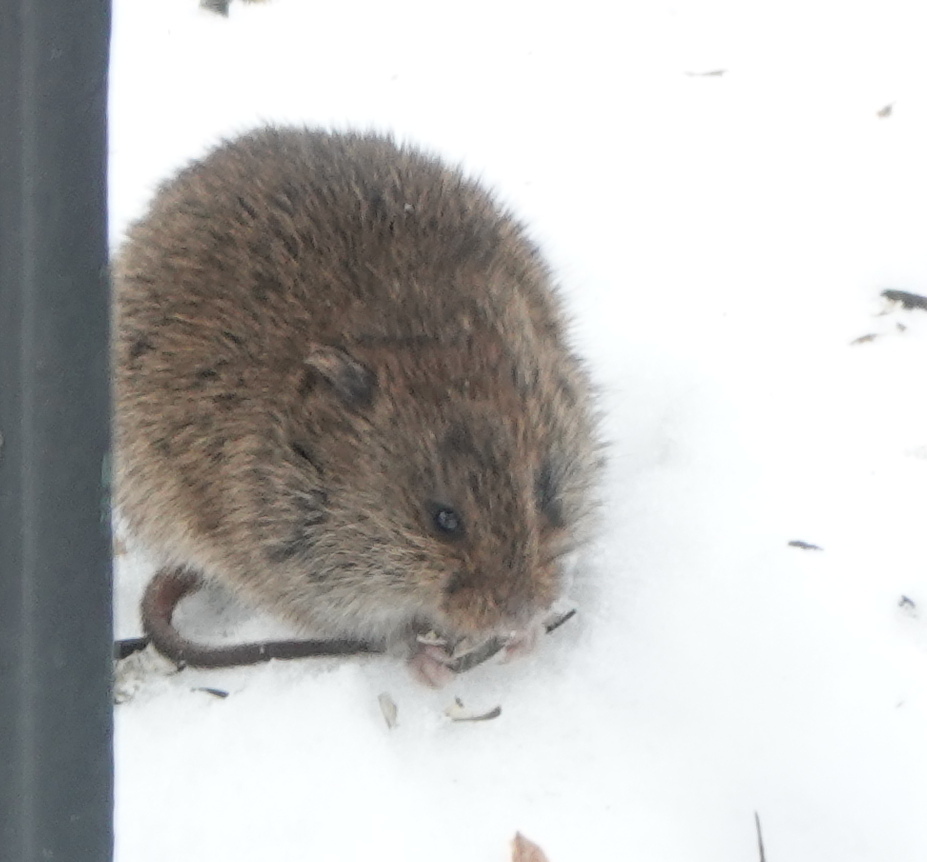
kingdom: Animalia
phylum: Chordata
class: Mammalia
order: Rodentia
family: Cricetidae
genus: Microtus
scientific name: Microtus pennsylvanicus
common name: Meadow vole
